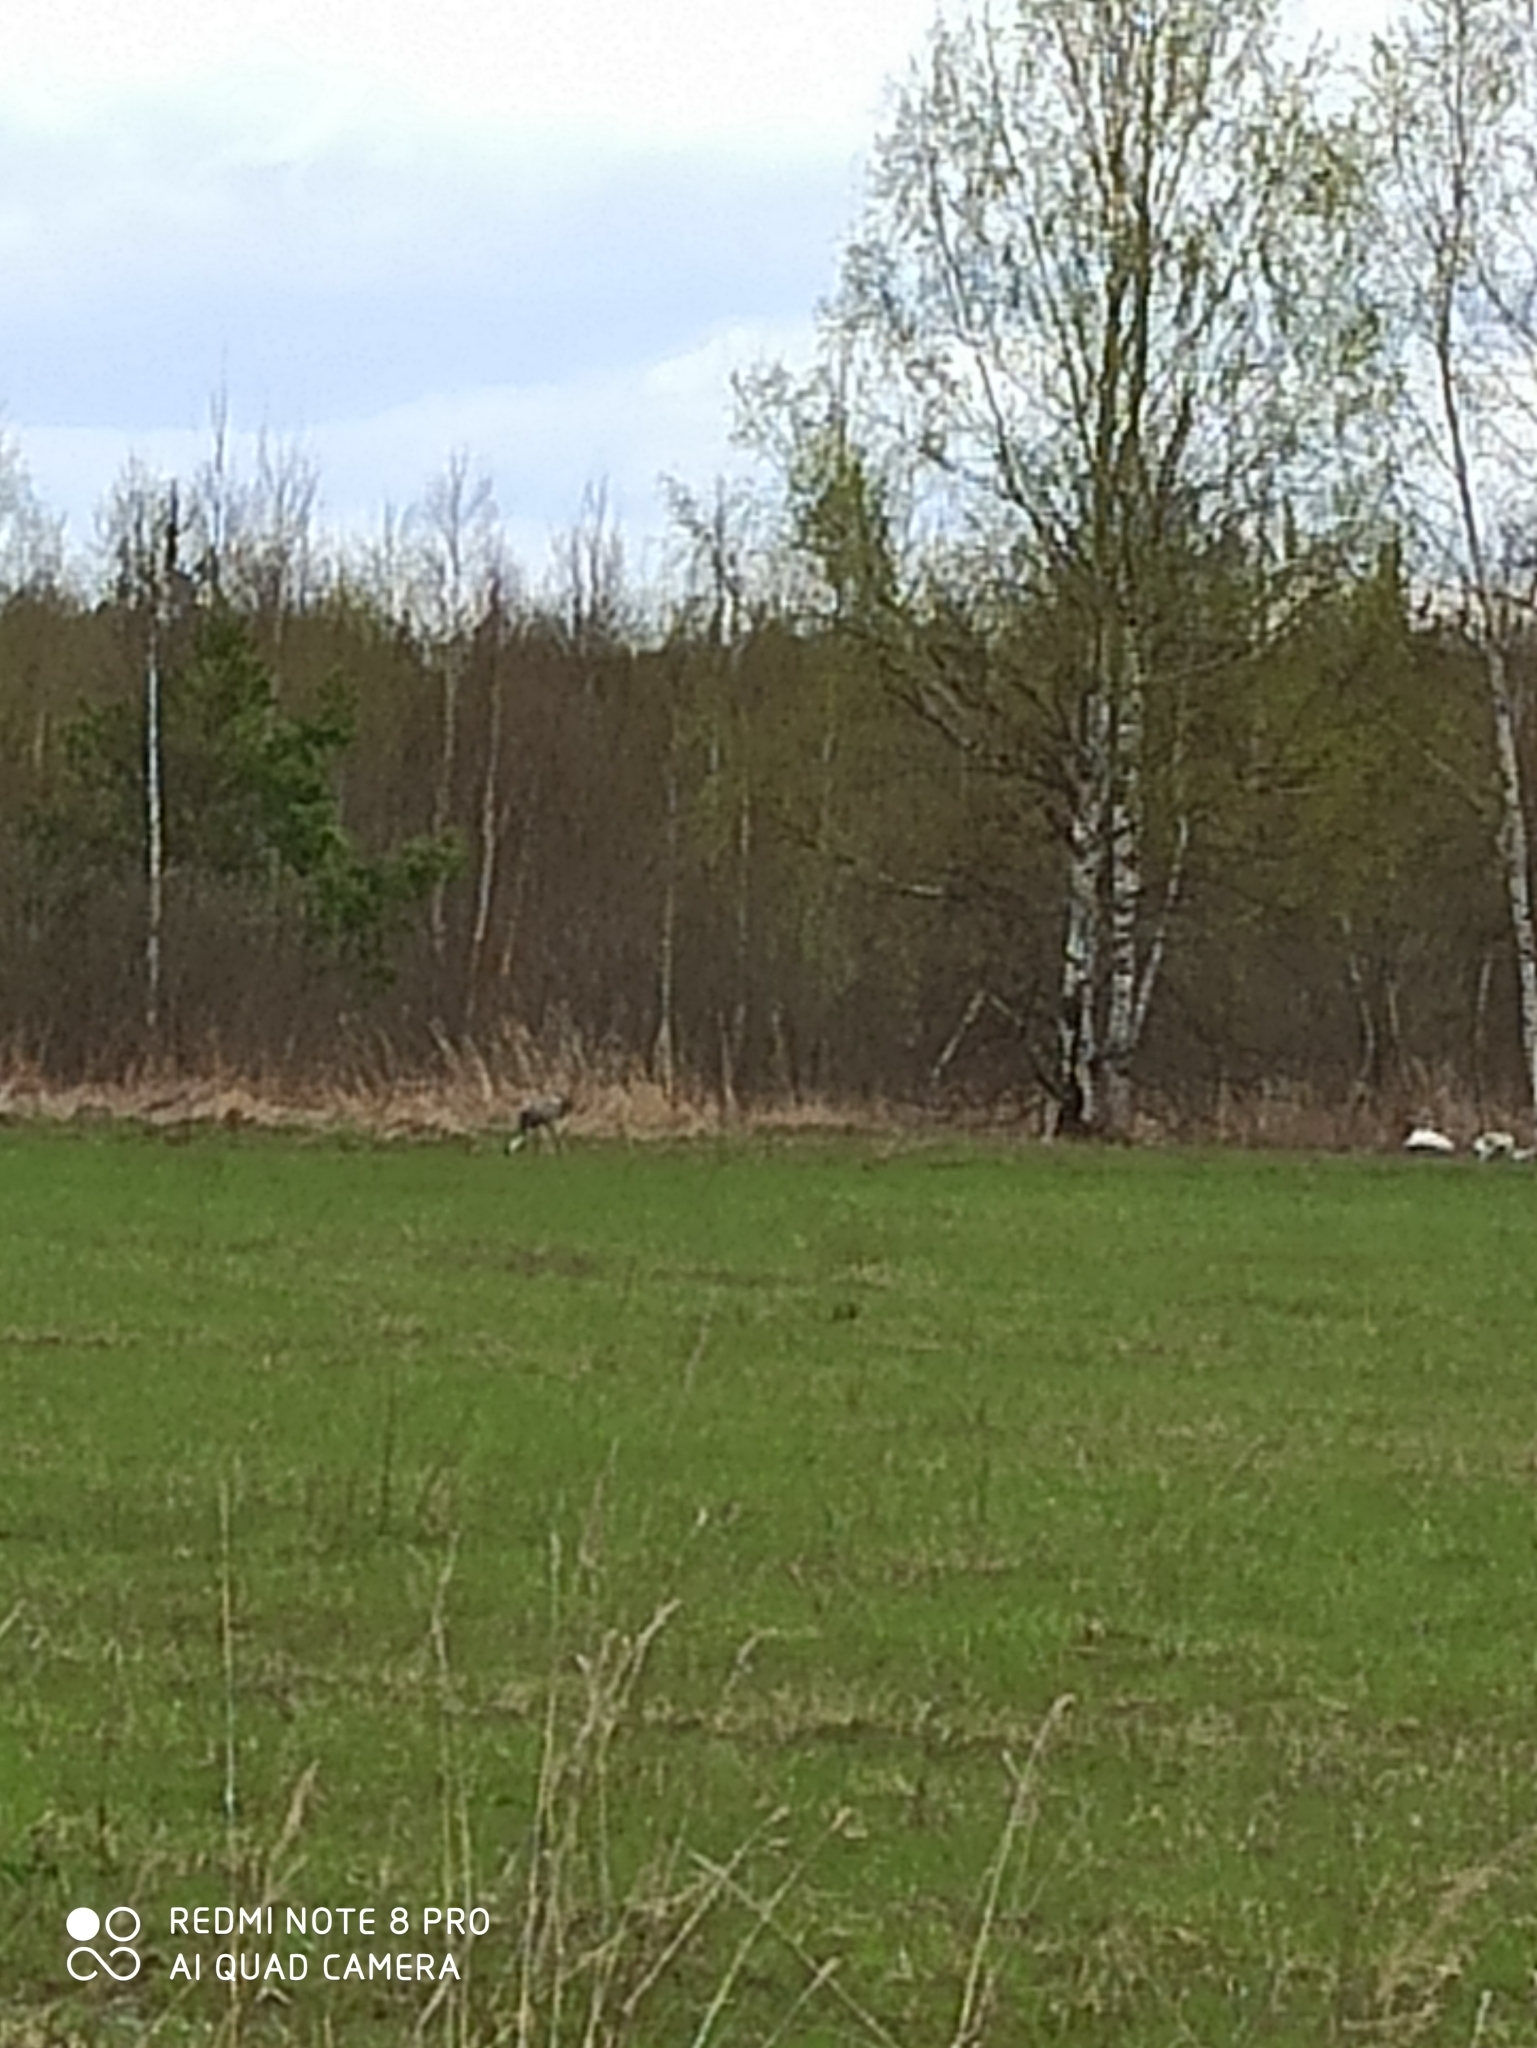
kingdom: Animalia
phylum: Chordata
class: Aves
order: Gruiformes
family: Gruidae
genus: Grus
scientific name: Grus grus
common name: Common crane
